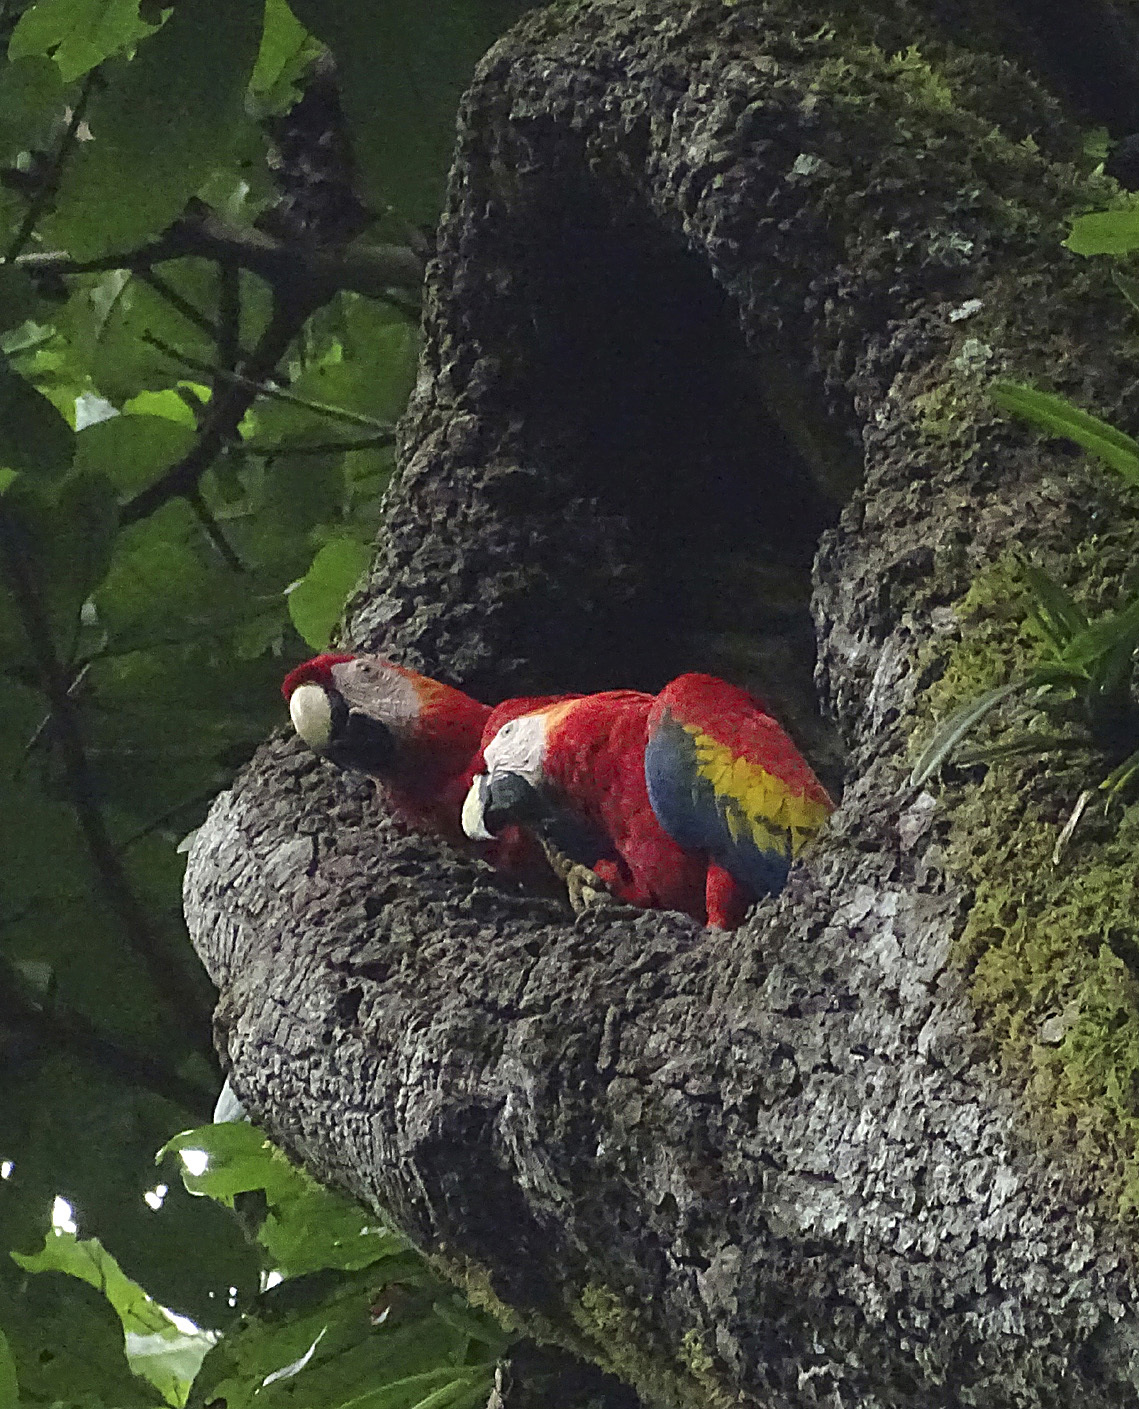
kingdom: Animalia
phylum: Chordata
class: Aves
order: Psittaciformes
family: Psittacidae
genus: Ara
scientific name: Ara macao
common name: Scarlet macaw
